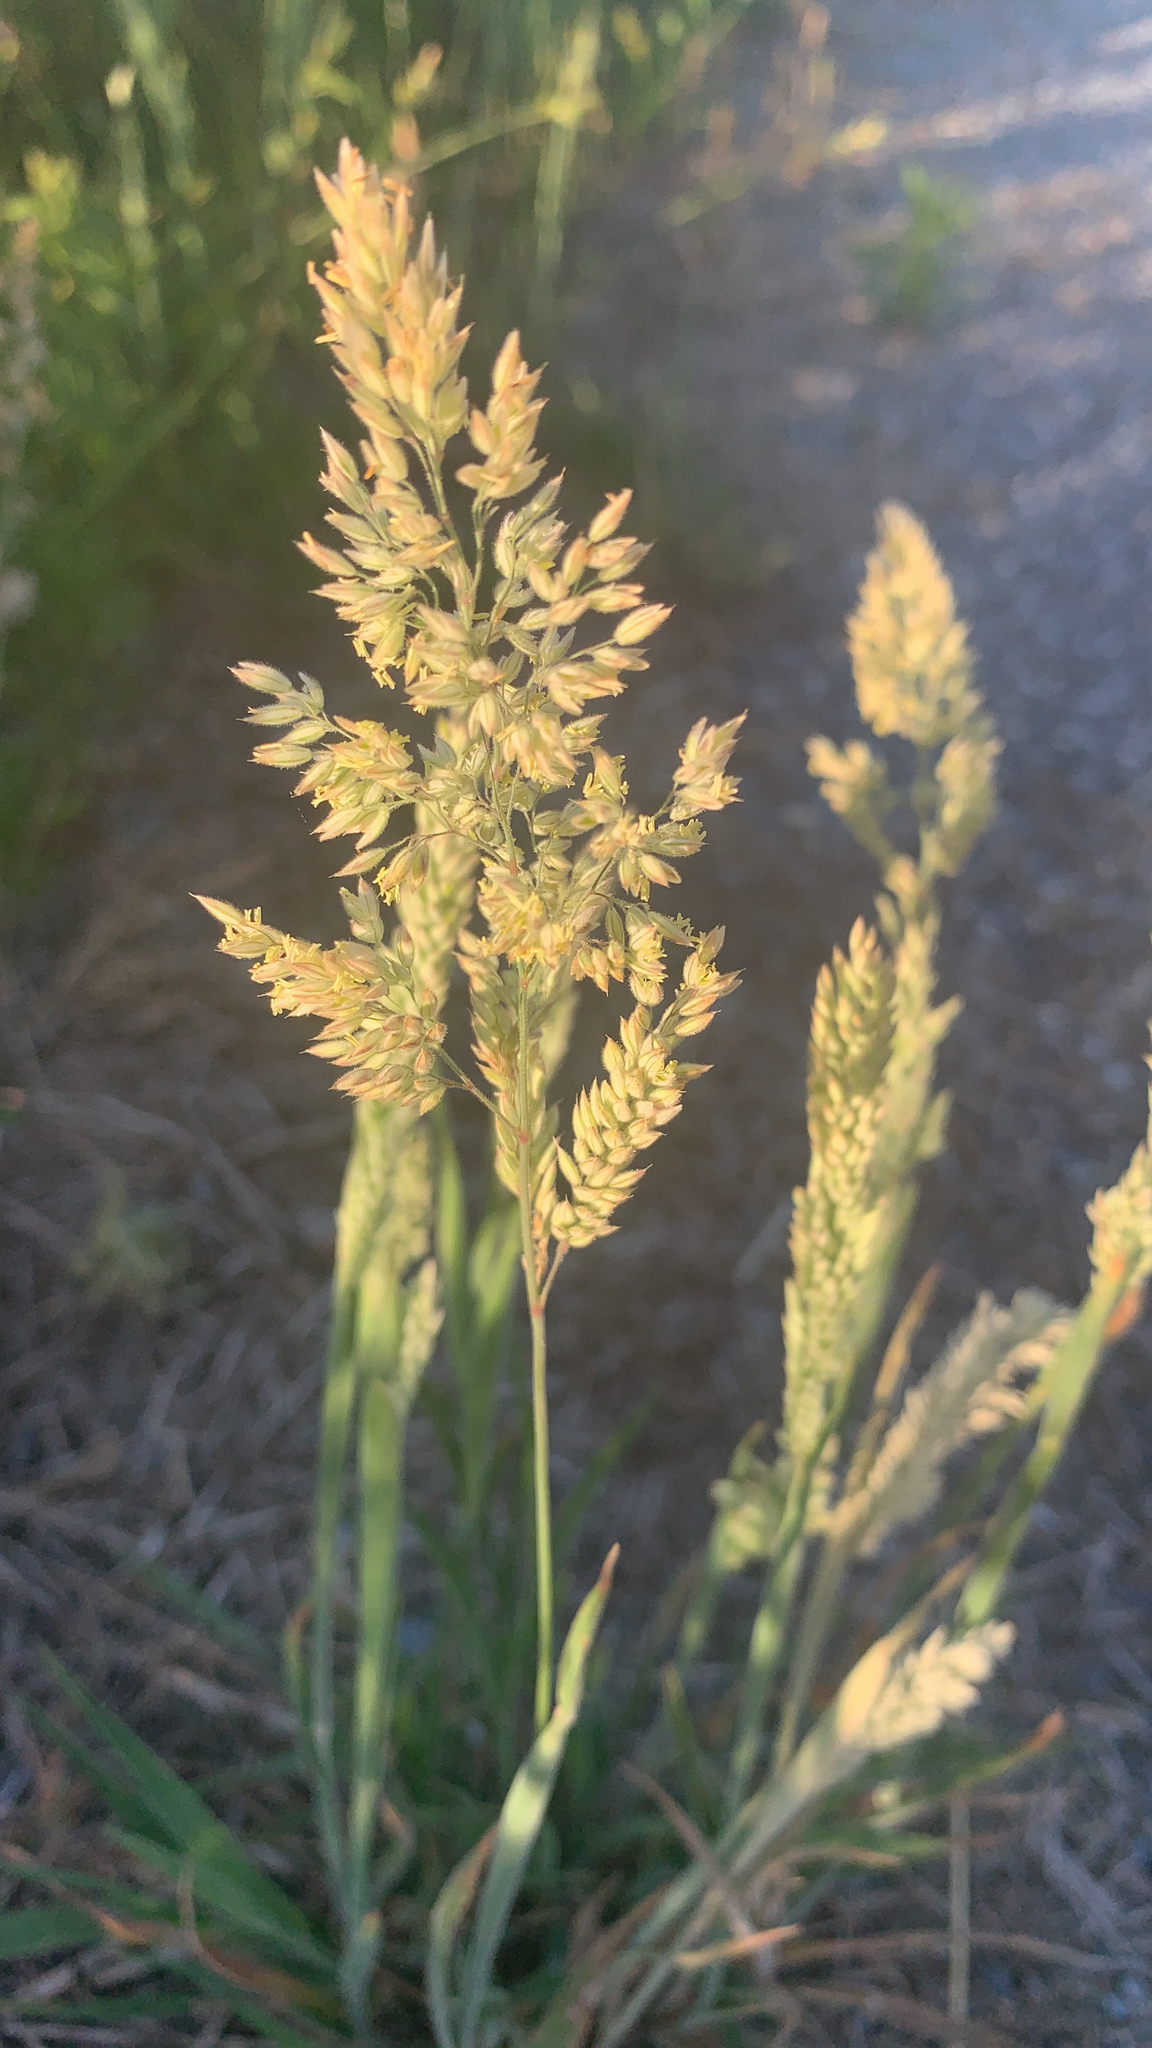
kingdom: Plantae
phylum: Tracheophyta
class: Liliopsida
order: Poales
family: Poaceae
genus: Holcus
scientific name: Holcus lanatus
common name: Yorkshire-fog
